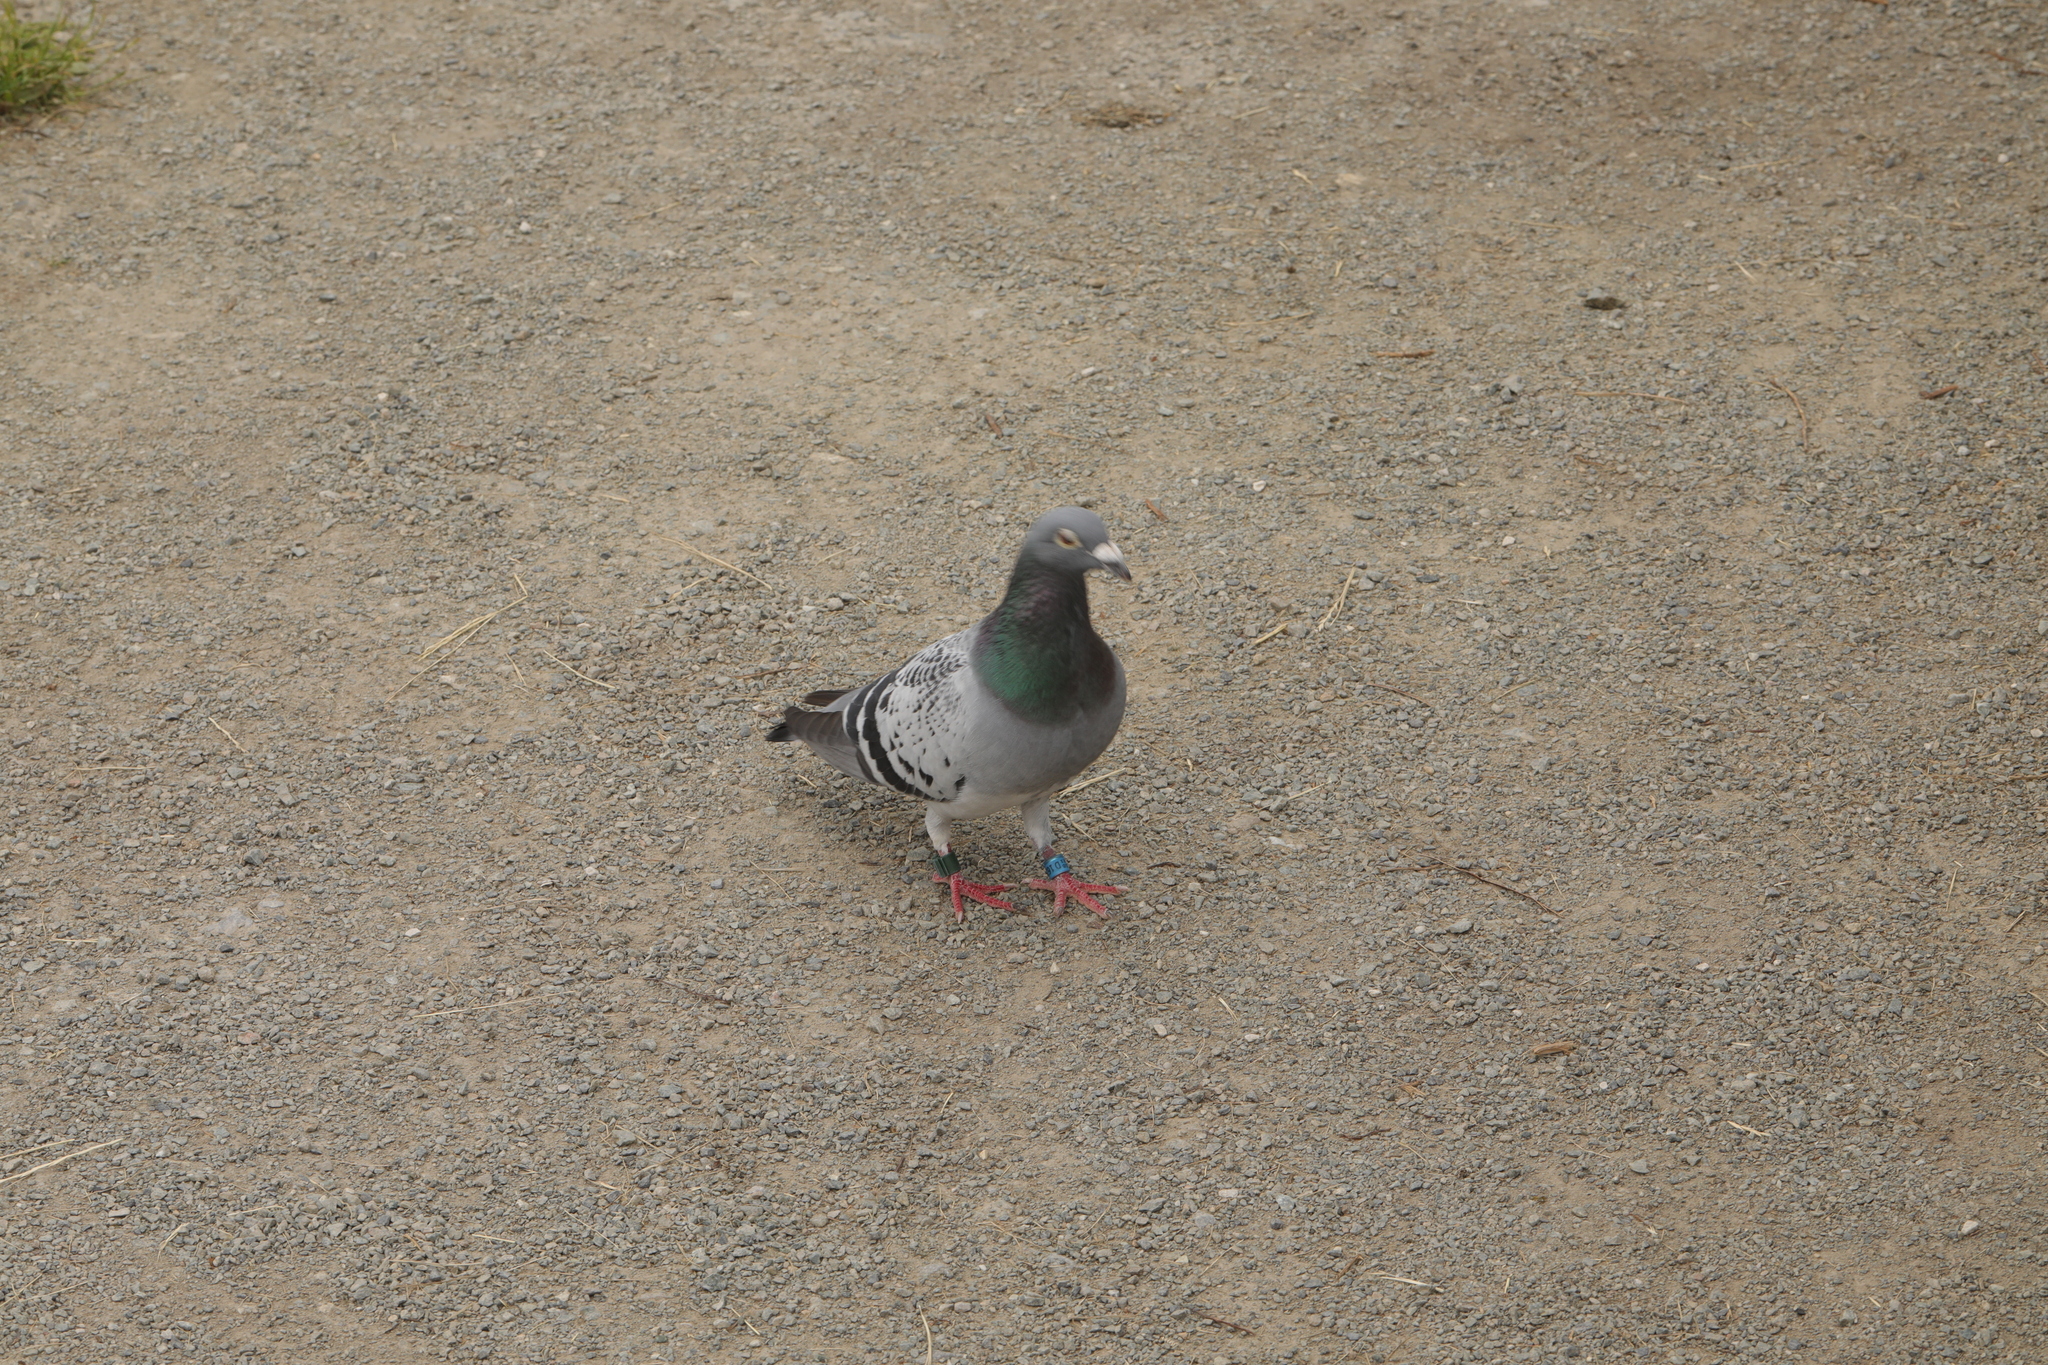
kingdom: Animalia
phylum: Chordata
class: Aves
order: Columbiformes
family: Columbidae
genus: Columba
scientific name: Columba livia
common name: Rock pigeon
